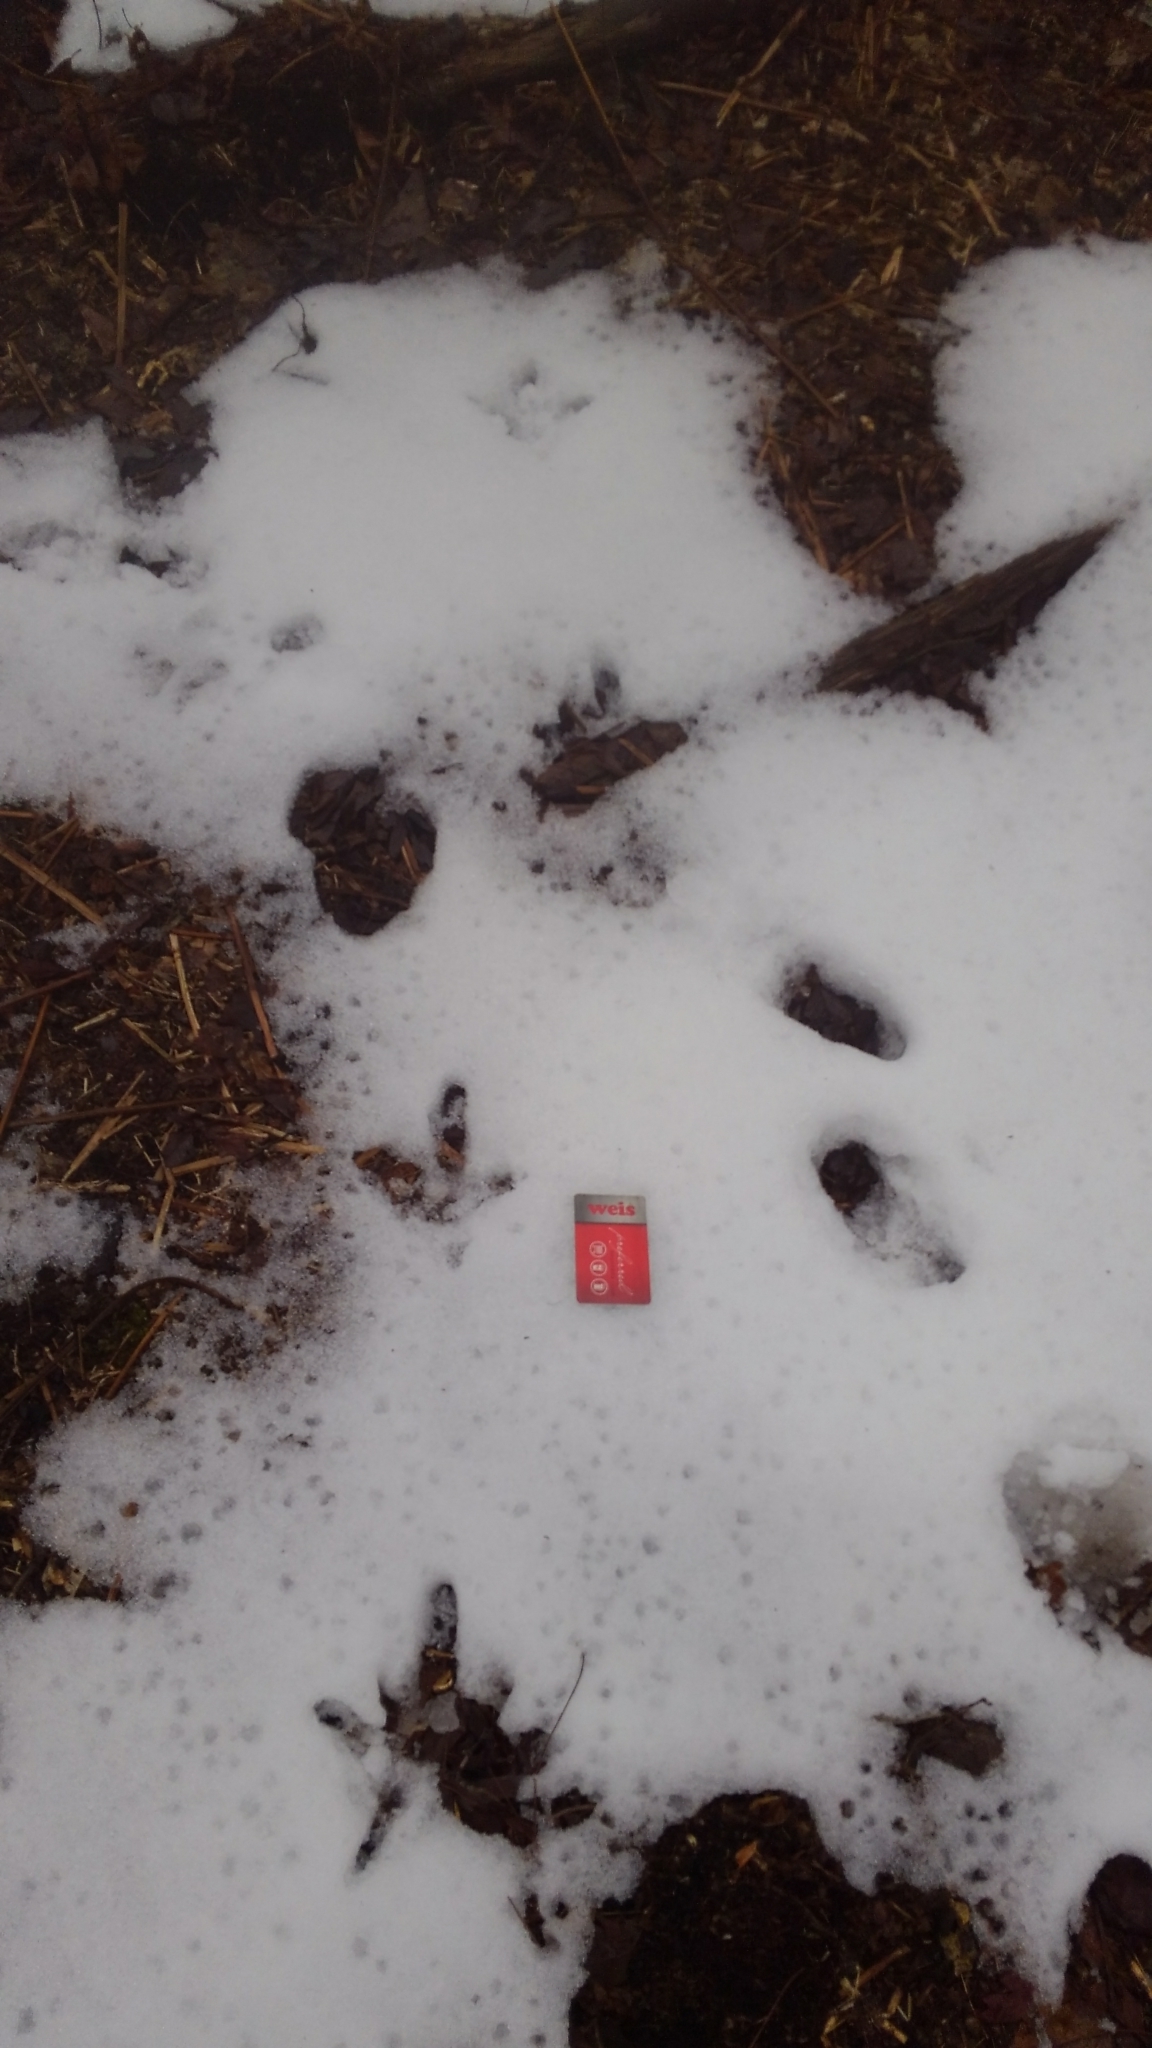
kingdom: Animalia
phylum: Chordata
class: Aves
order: Galliformes
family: Phasianidae
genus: Meleagris
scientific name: Meleagris gallopavo
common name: Wild turkey
